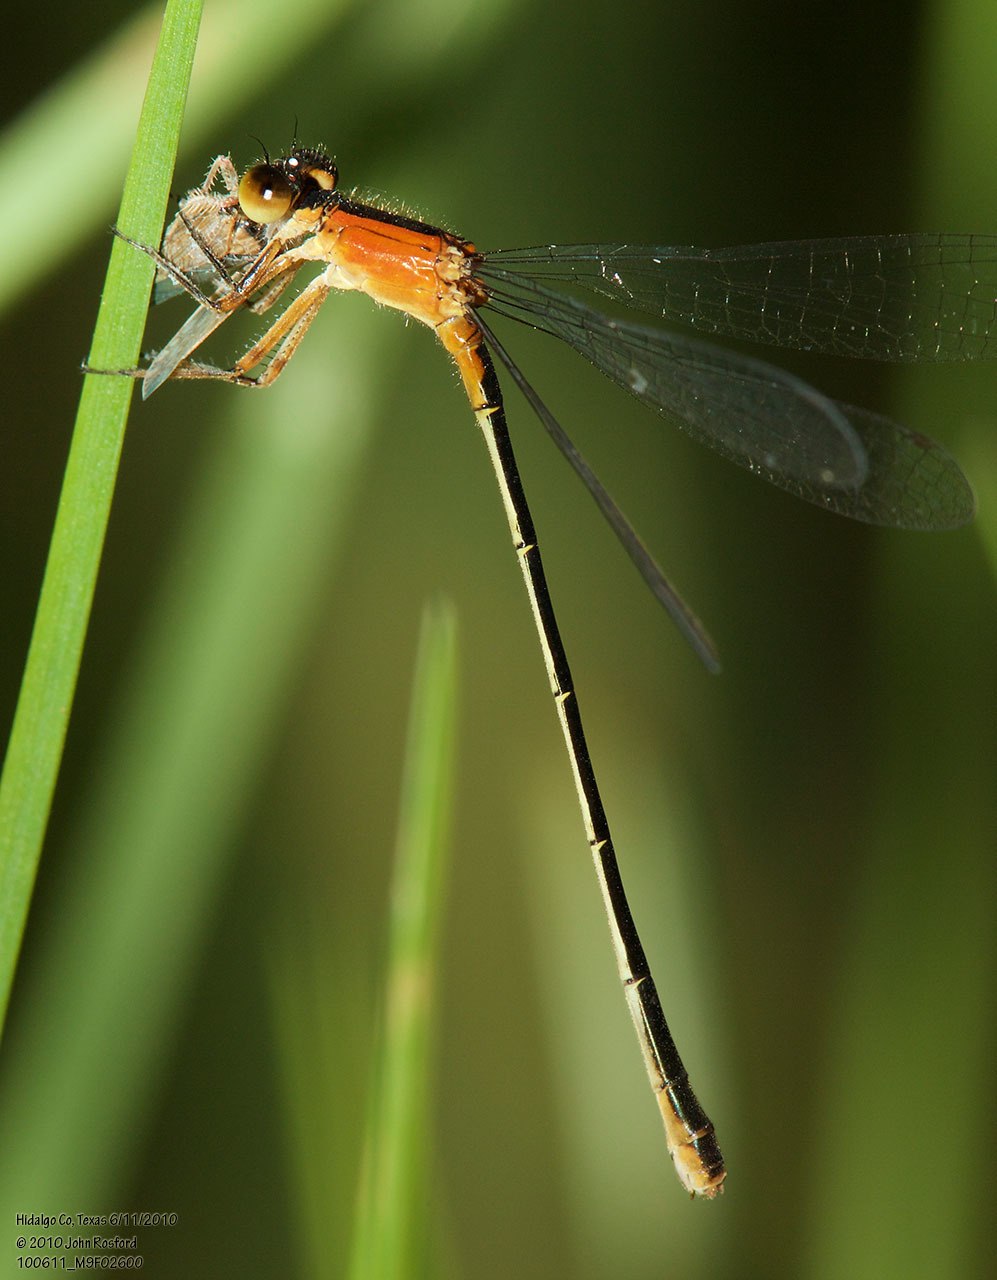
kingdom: Animalia
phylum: Arthropoda
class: Insecta
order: Odonata
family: Coenagrionidae
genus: Ischnura
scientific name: Ischnura ramburii
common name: Rambur's forktail
